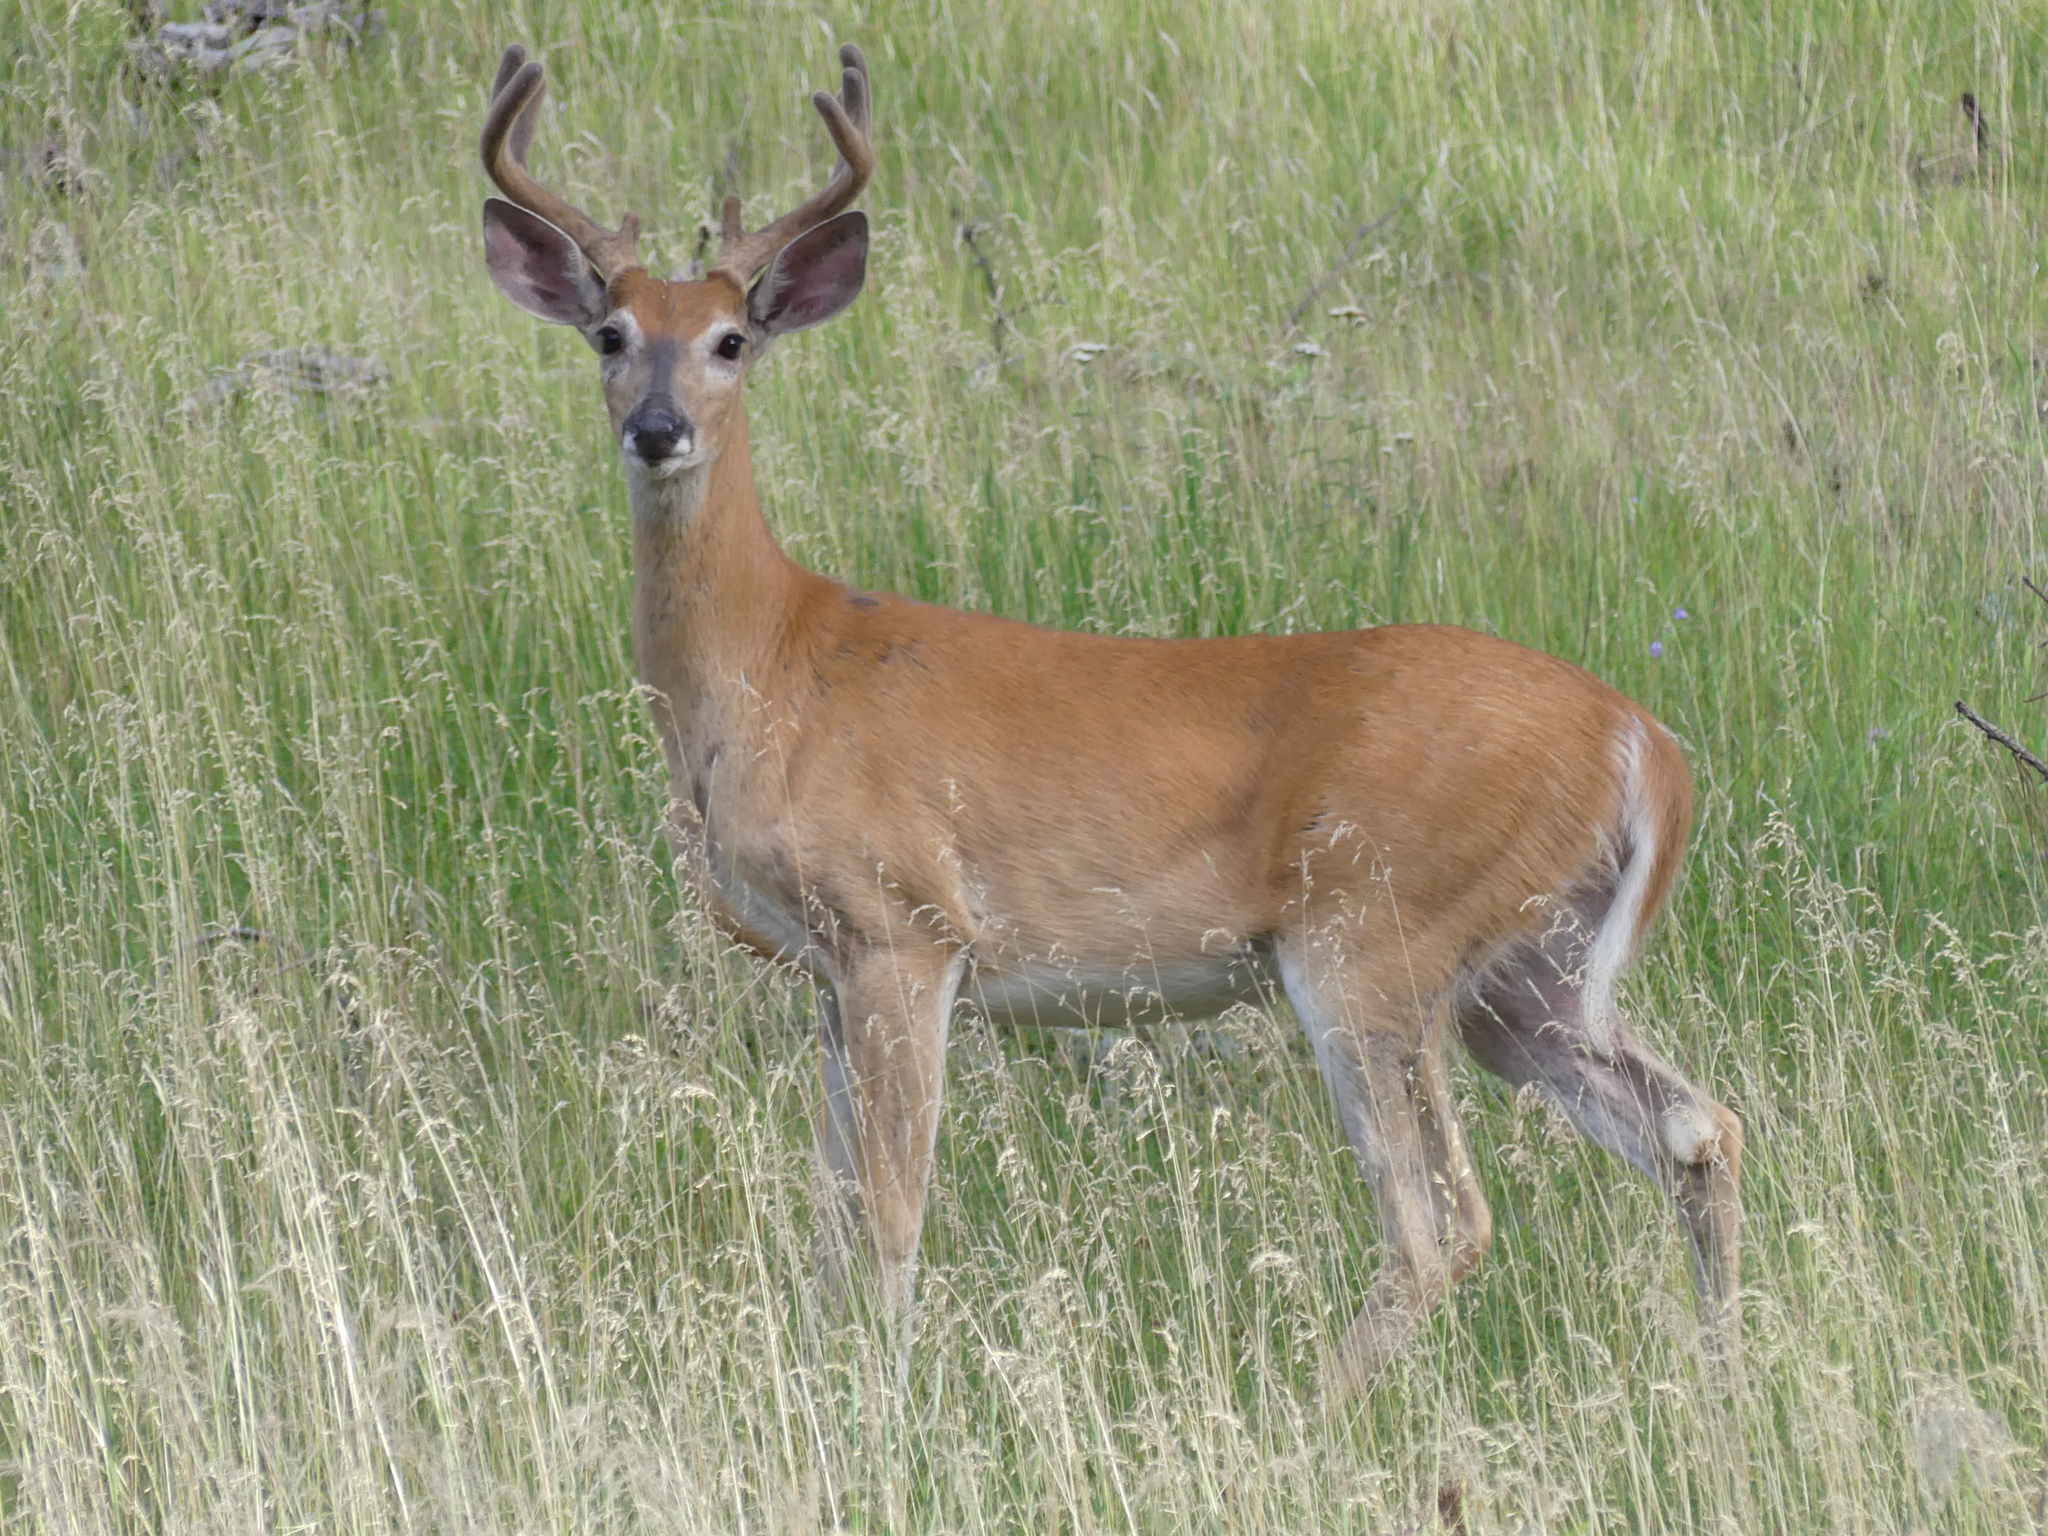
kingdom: Animalia
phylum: Chordata
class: Mammalia
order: Artiodactyla
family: Cervidae
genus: Odocoileus
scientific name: Odocoileus virginianus
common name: White-tailed deer
